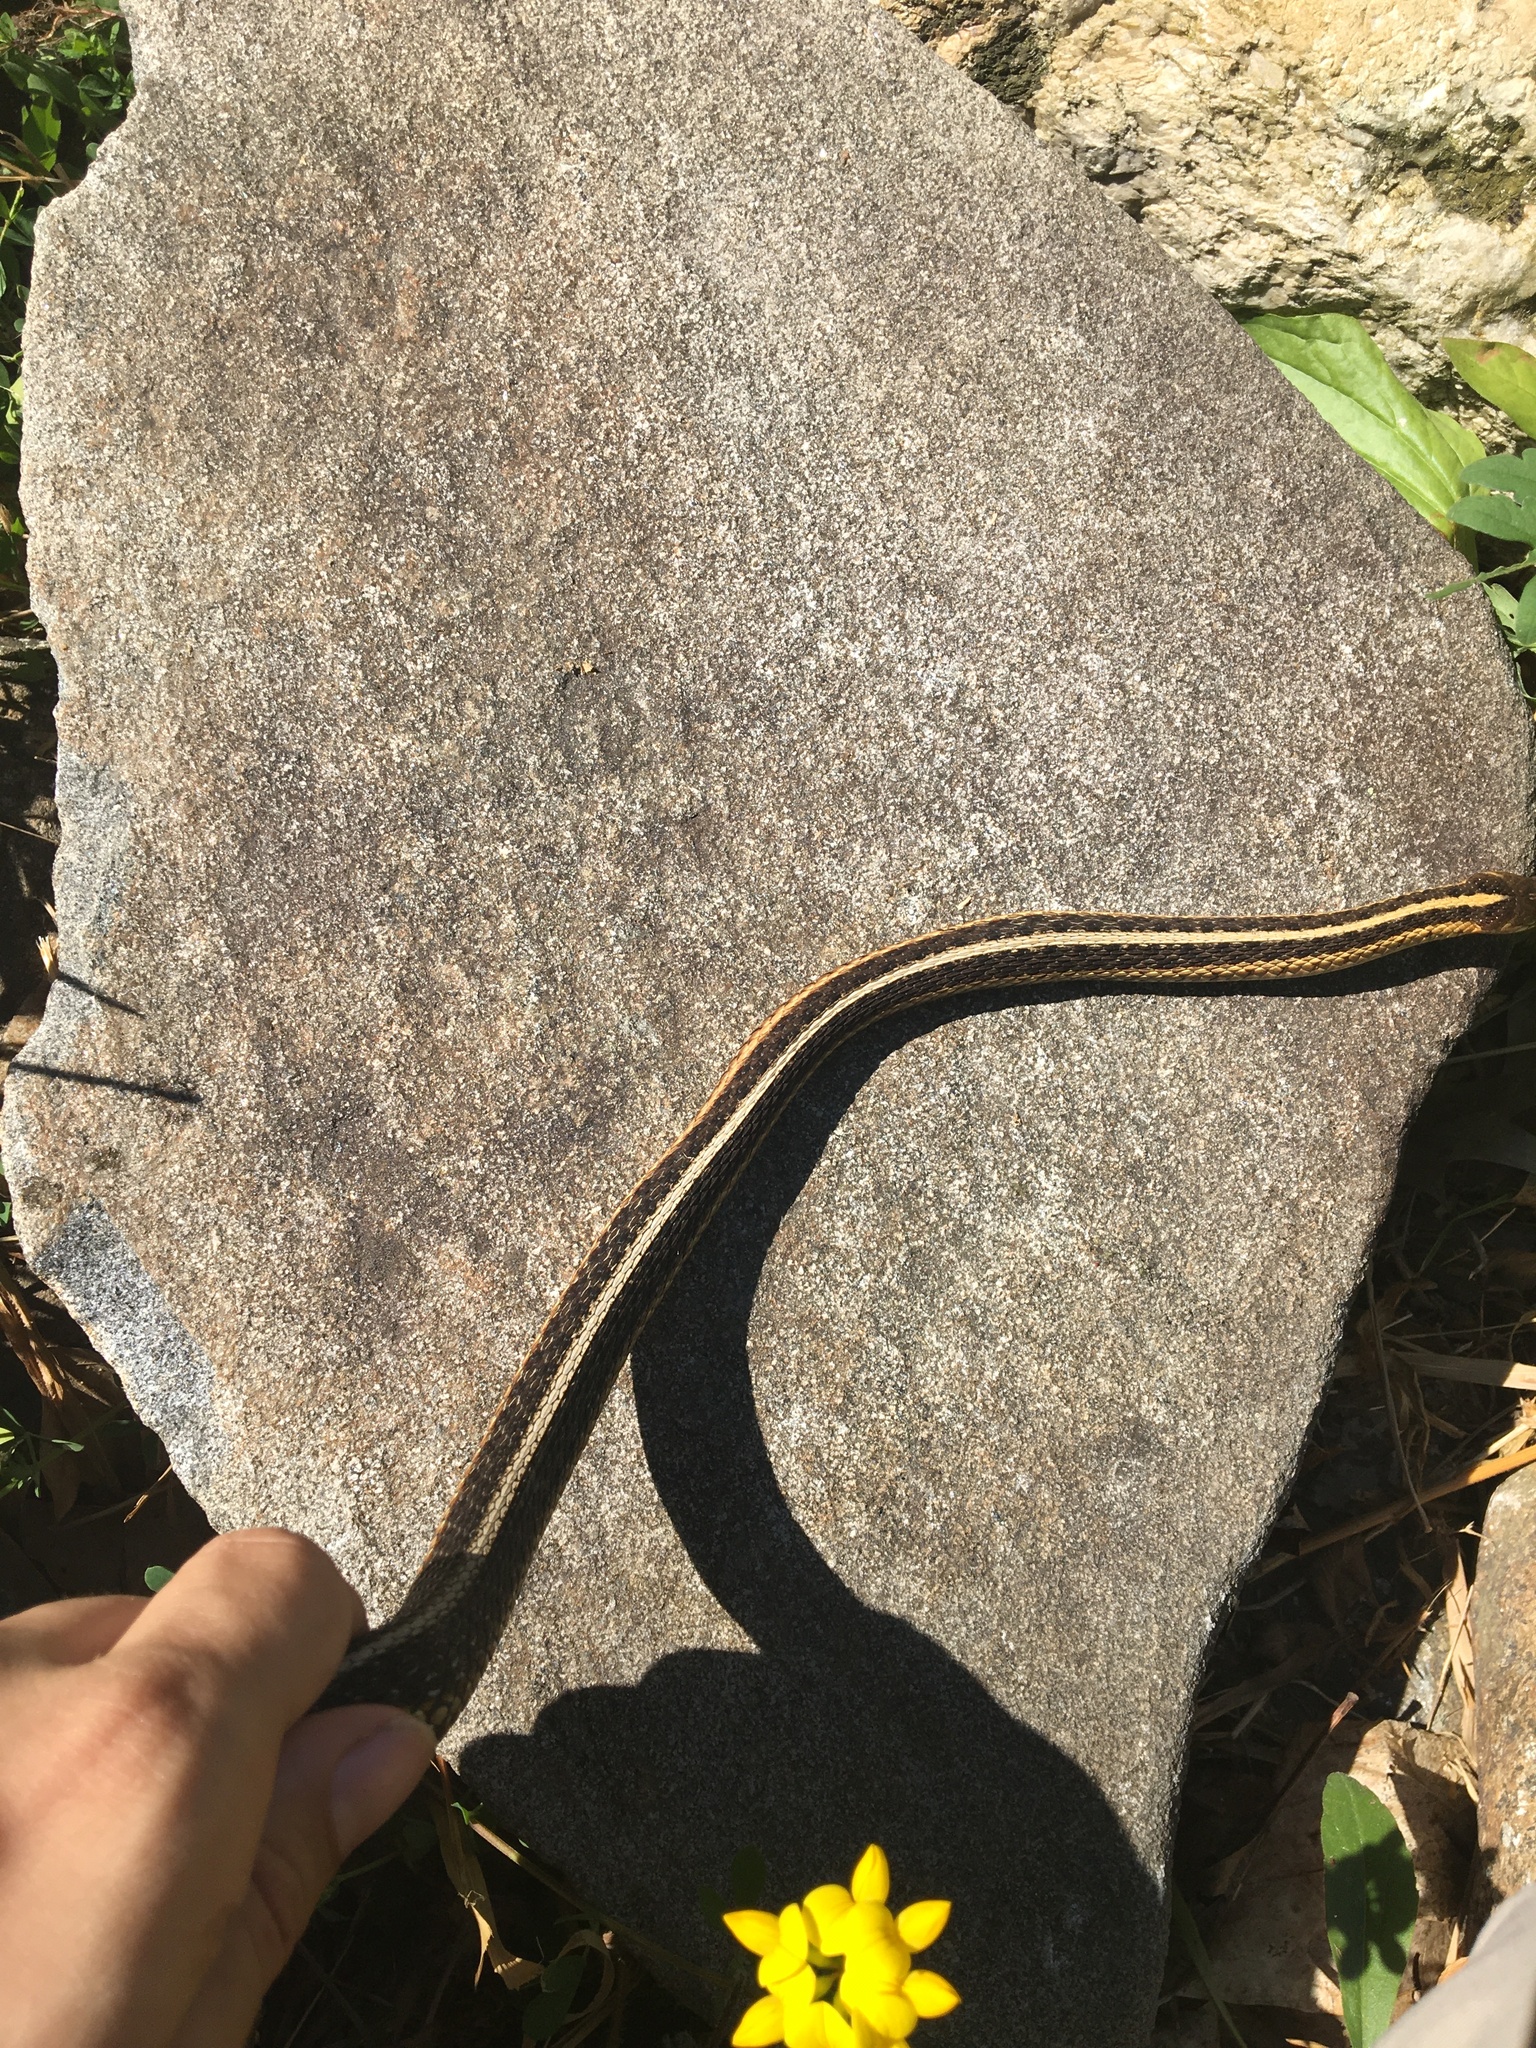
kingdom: Animalia
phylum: Chordata
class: Squamata
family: Colubridae
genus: Thamnophis
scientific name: Thamnophis sirtalis
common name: Common garter snake
